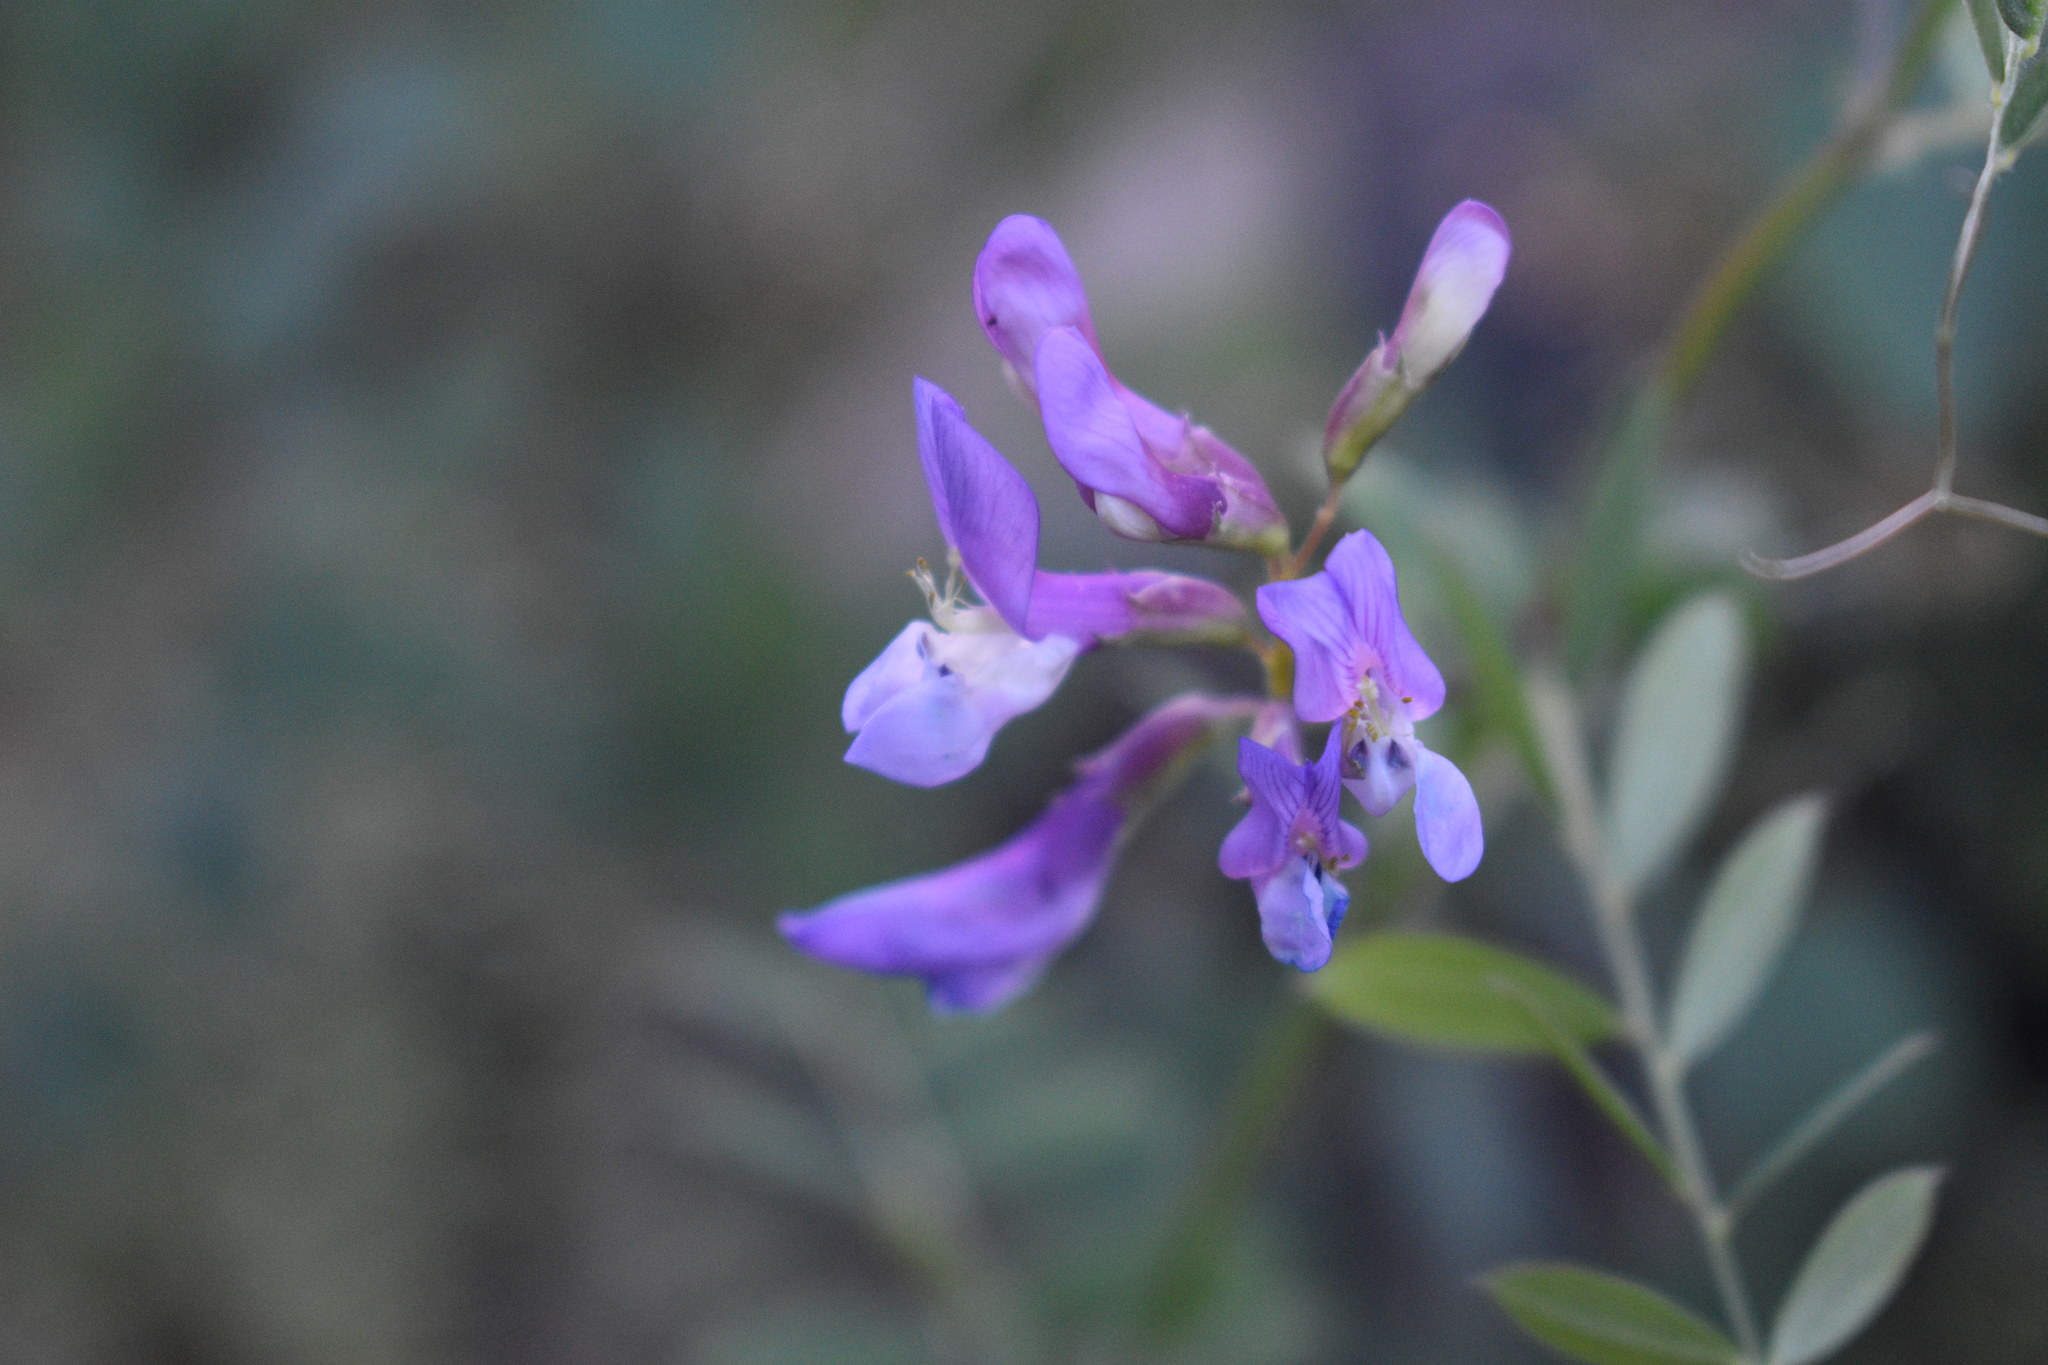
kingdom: Plantae
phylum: Tracheophyta
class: Magnoliopsida
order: Fabales
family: Fabaceae
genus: Vicia
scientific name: Vicia americana
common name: American vetch
